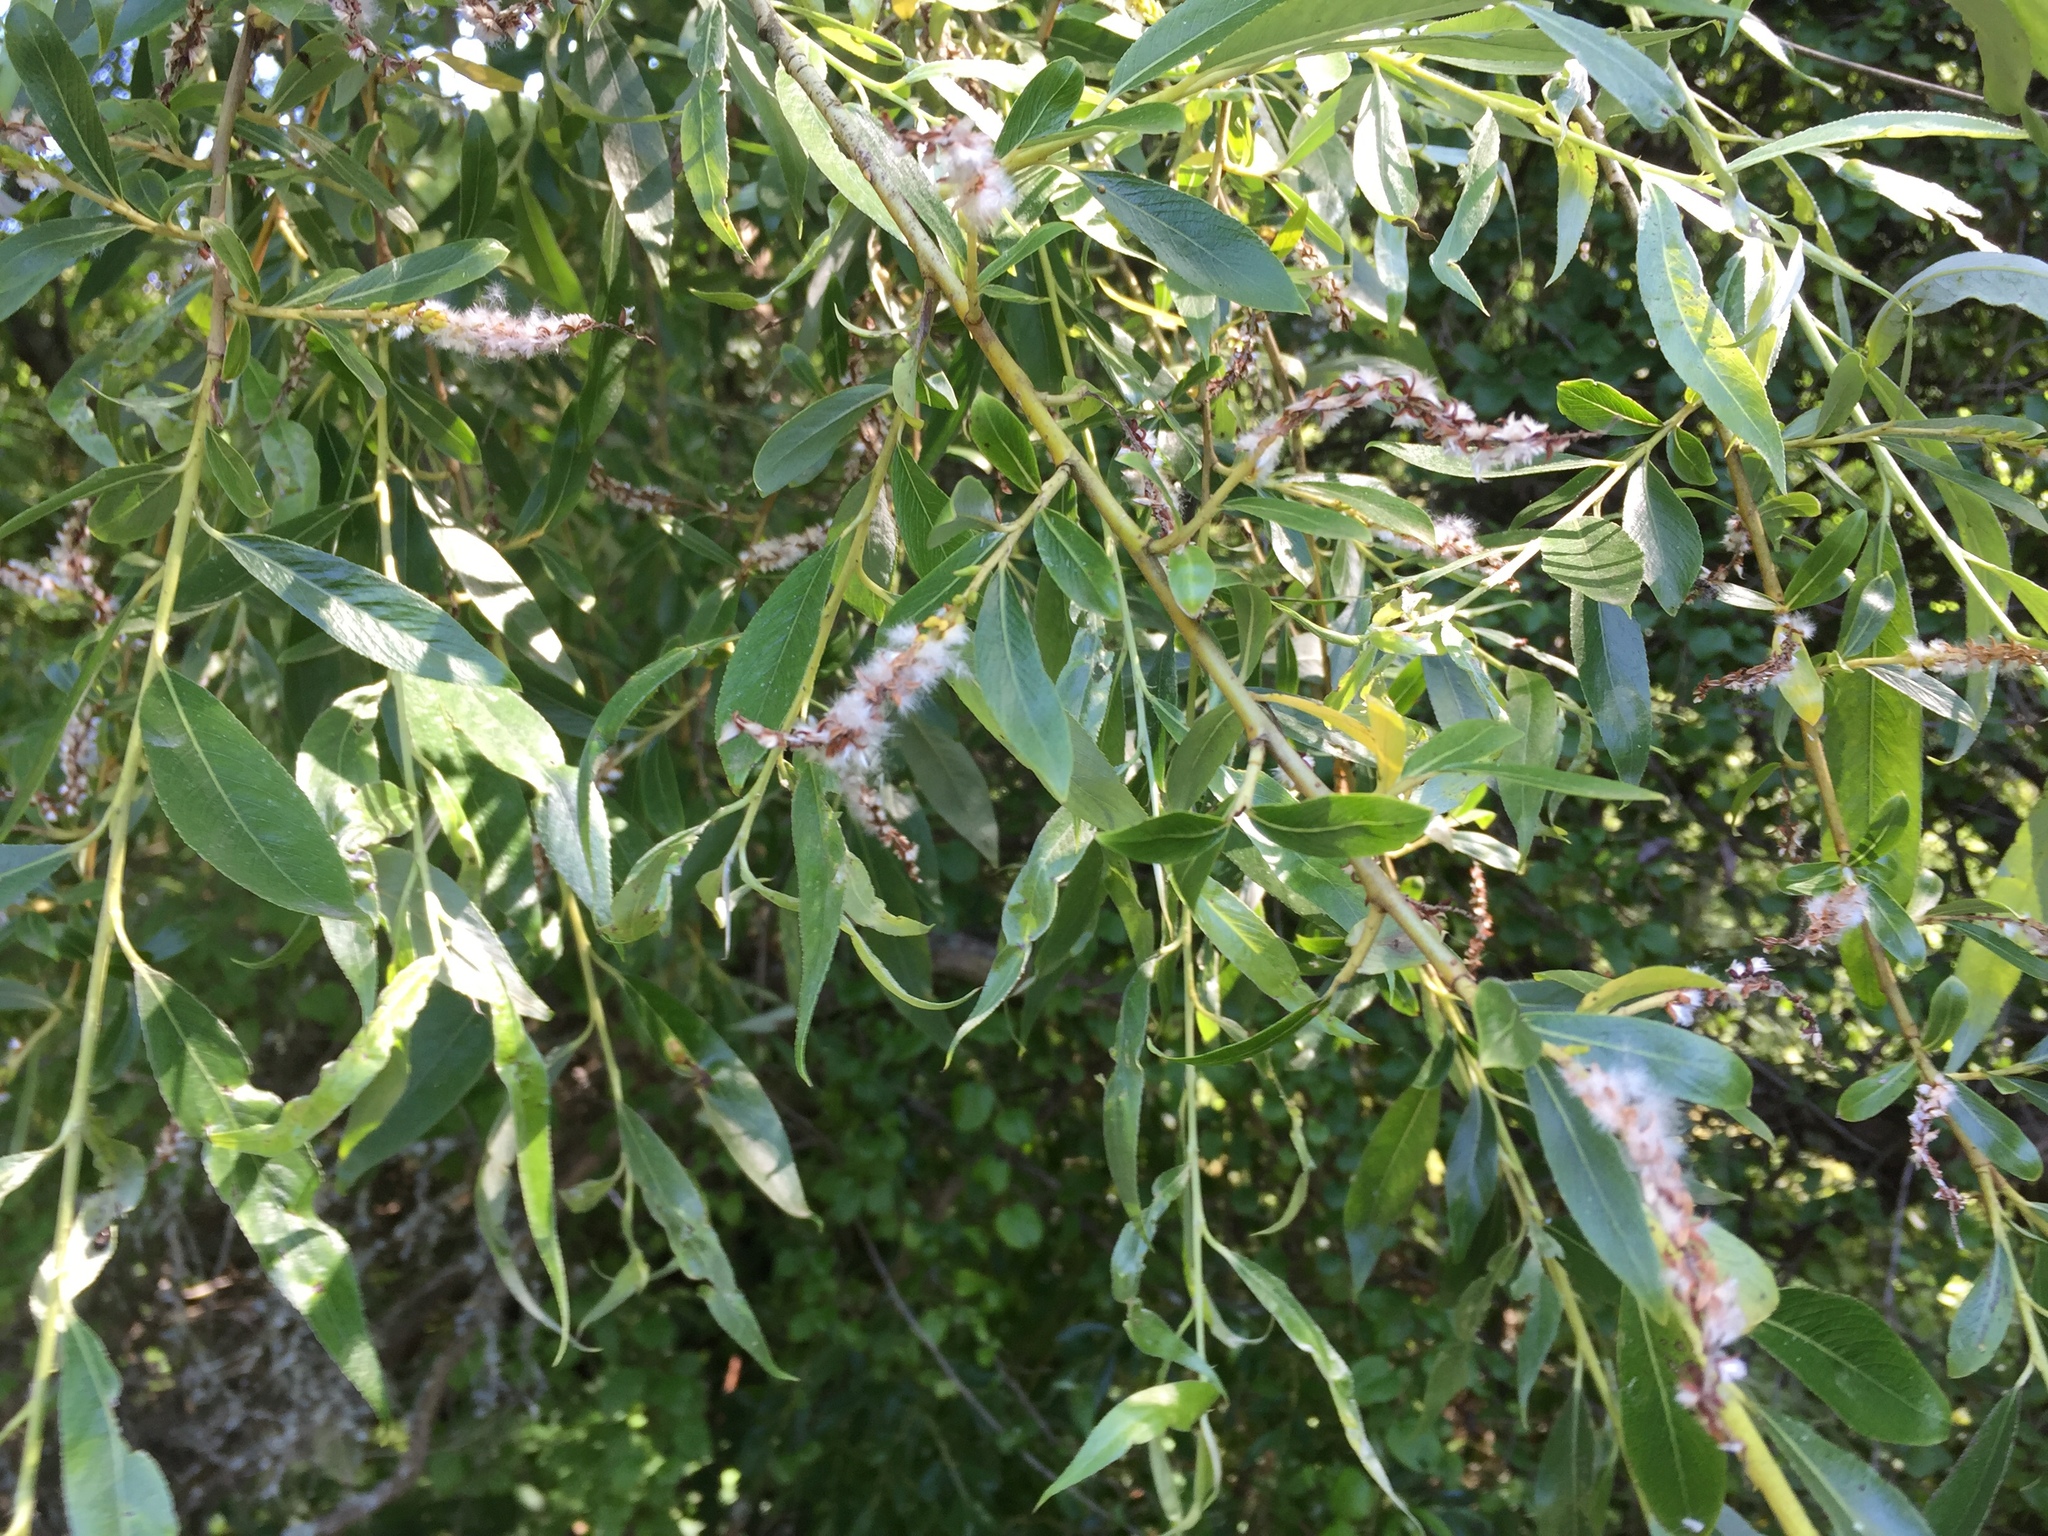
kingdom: Plantae
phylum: Tracheophyta
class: Magnoliopsida
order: Malpighiales
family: Salicaceae
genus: Salix
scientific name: Salix fragilis
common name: Crack willow
